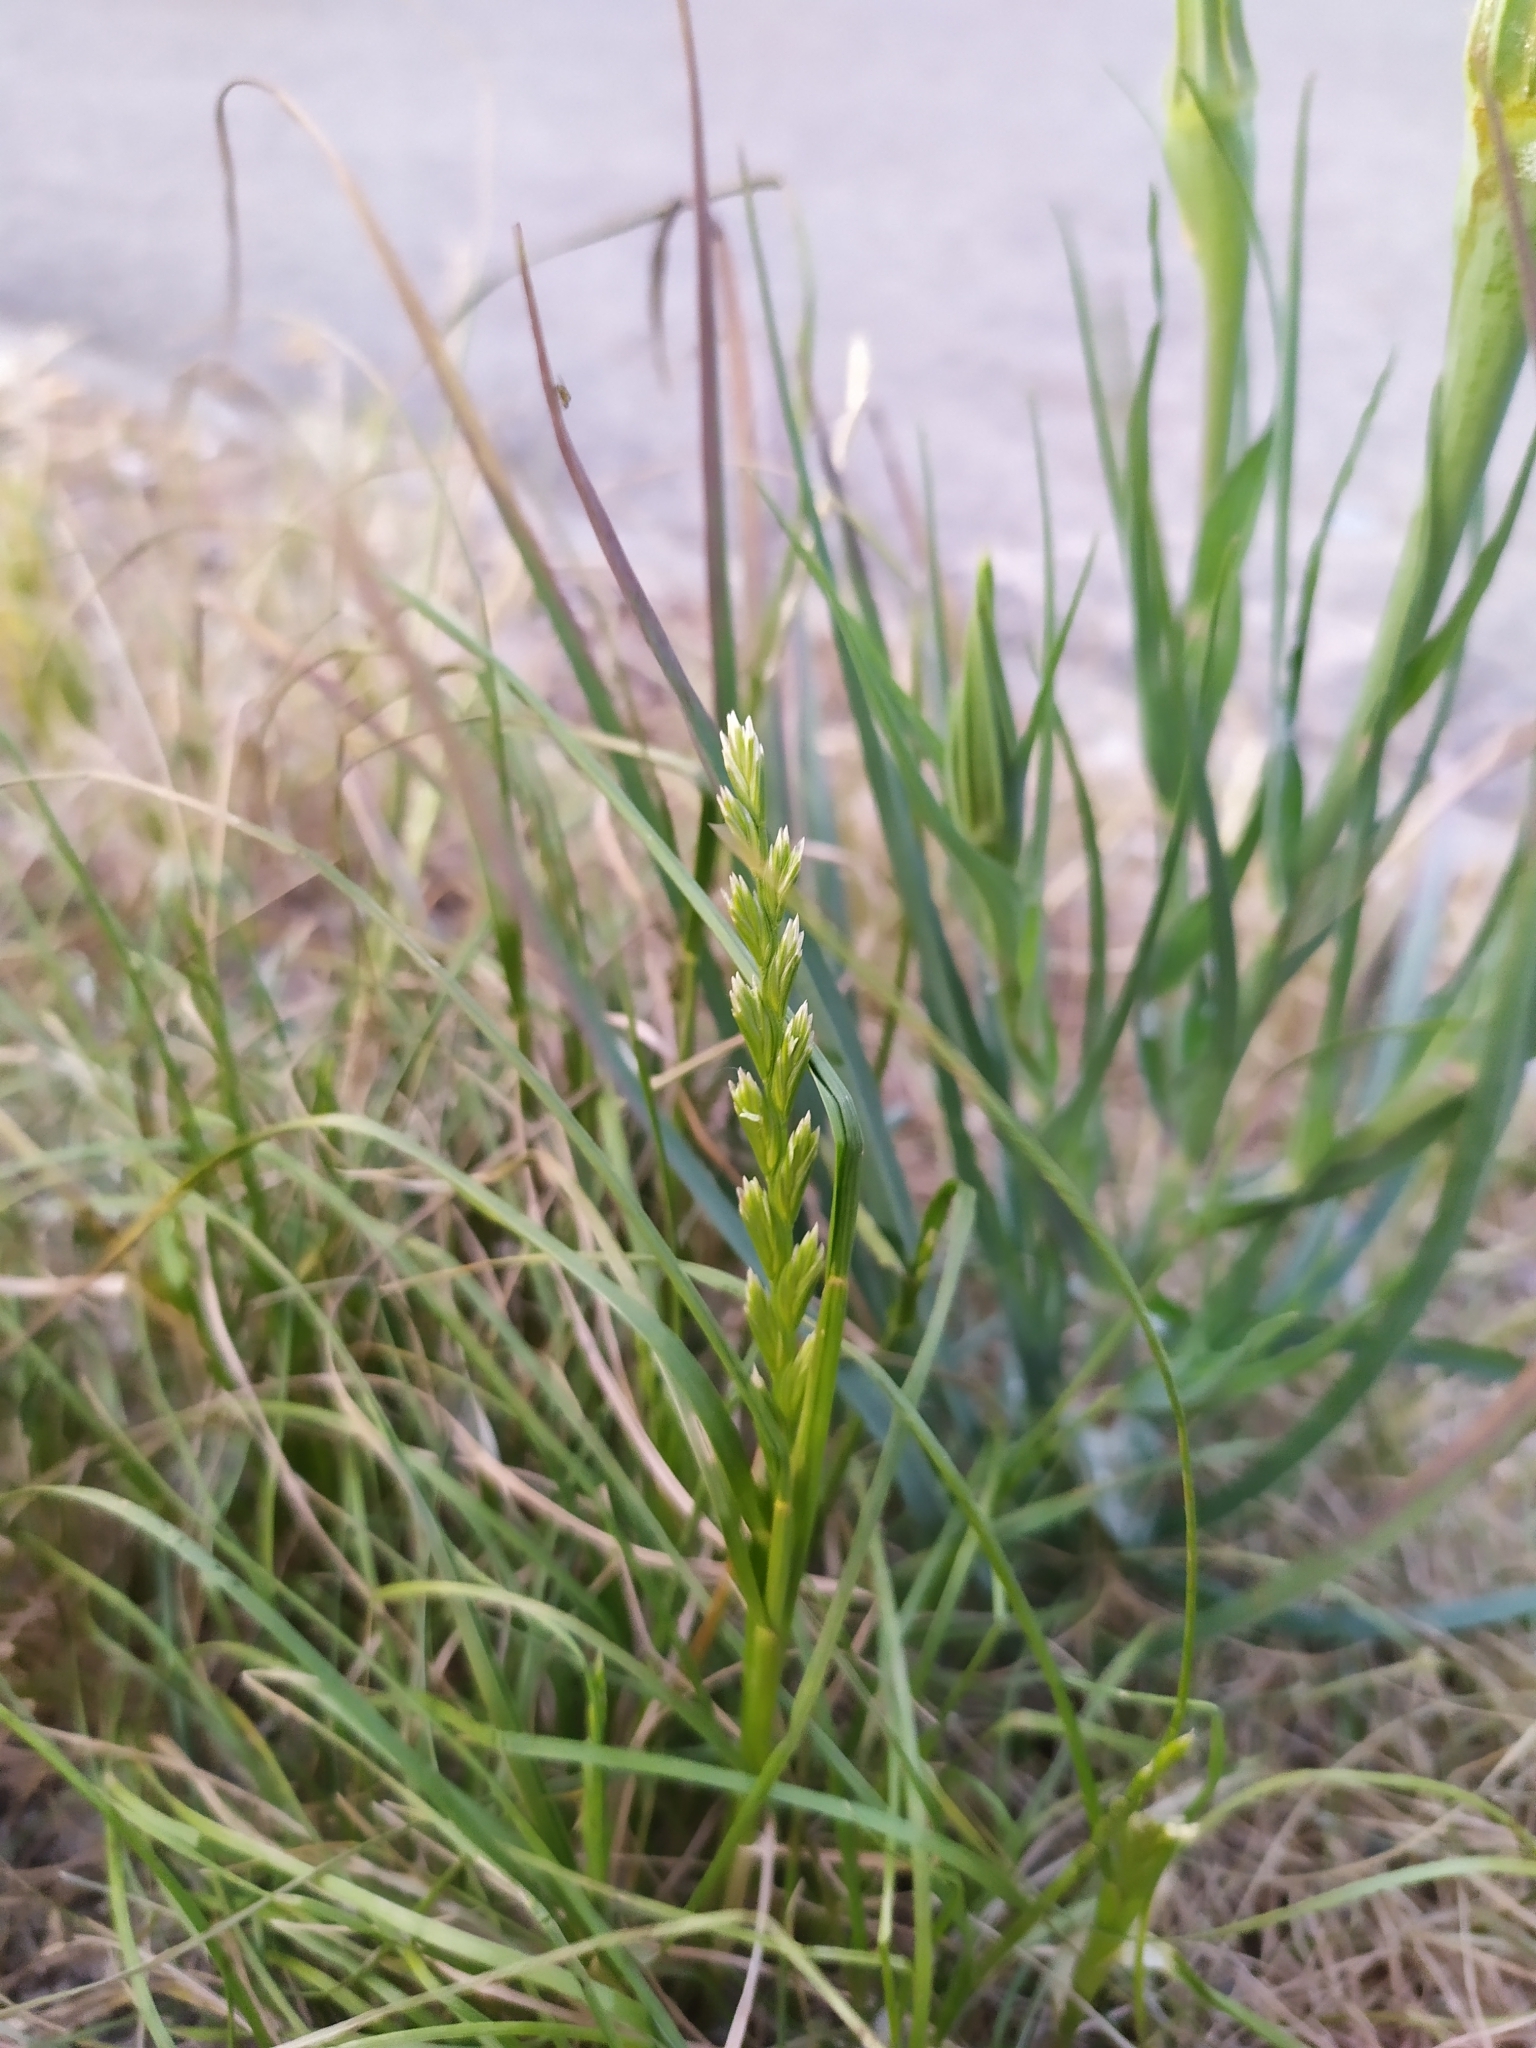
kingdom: Plantae
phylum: Tracheophyta
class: Liliopsida
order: Poales
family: Poaceae
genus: Lolium
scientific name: Lolium perenne
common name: Perennial ryegrass
